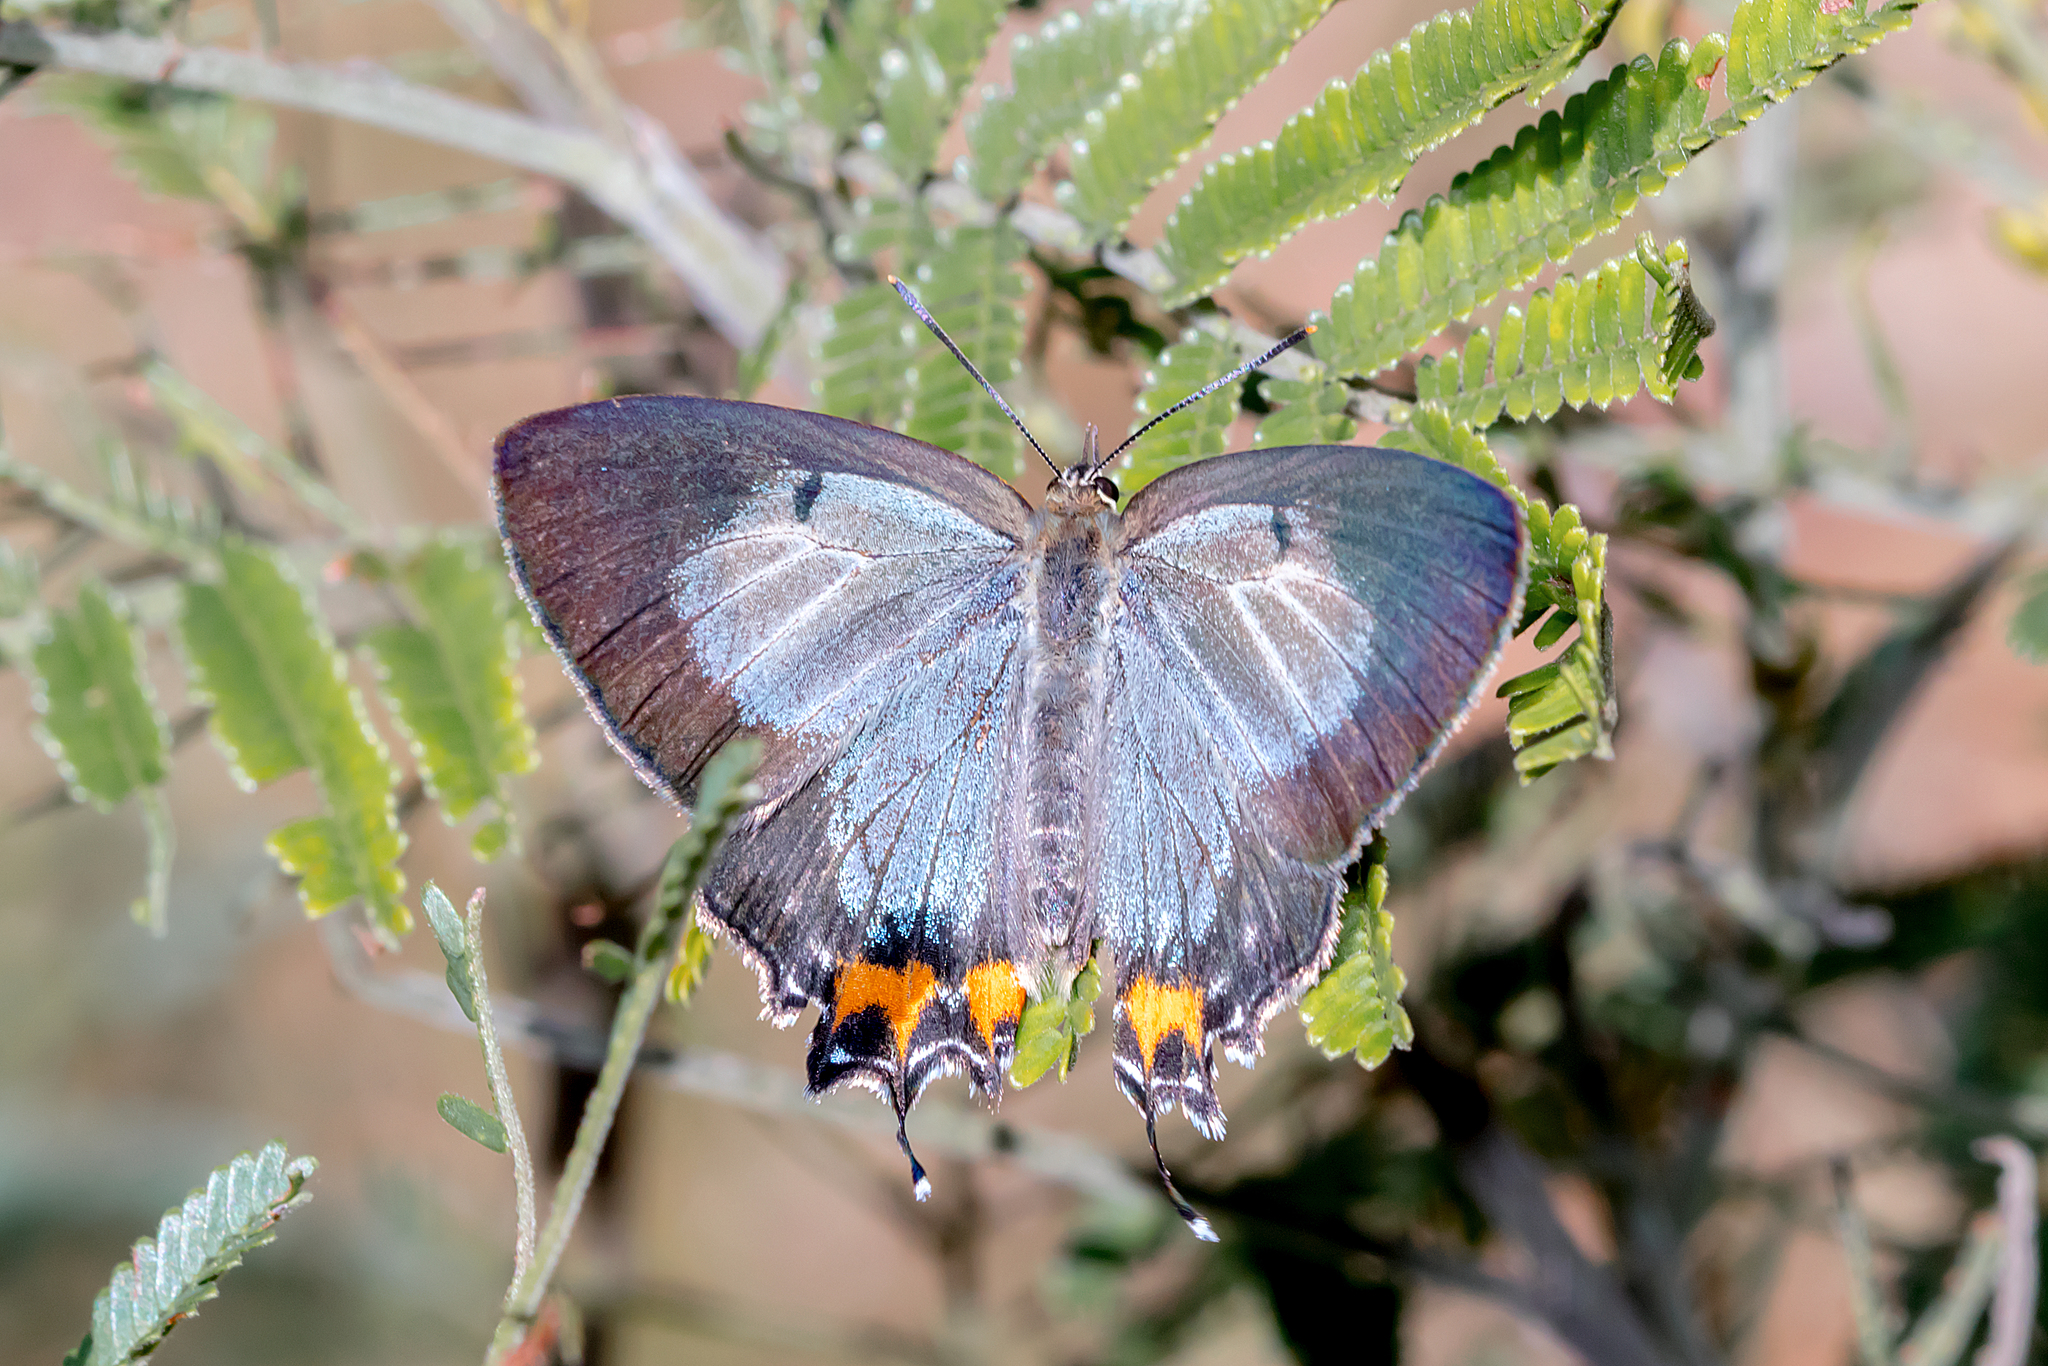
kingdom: Animalia
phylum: Arthropoda
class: Insecta
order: Lepidoptera
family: Lycaenidae
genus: Jalmenus
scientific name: Jalmenus evagoras
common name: Common imperial blue
